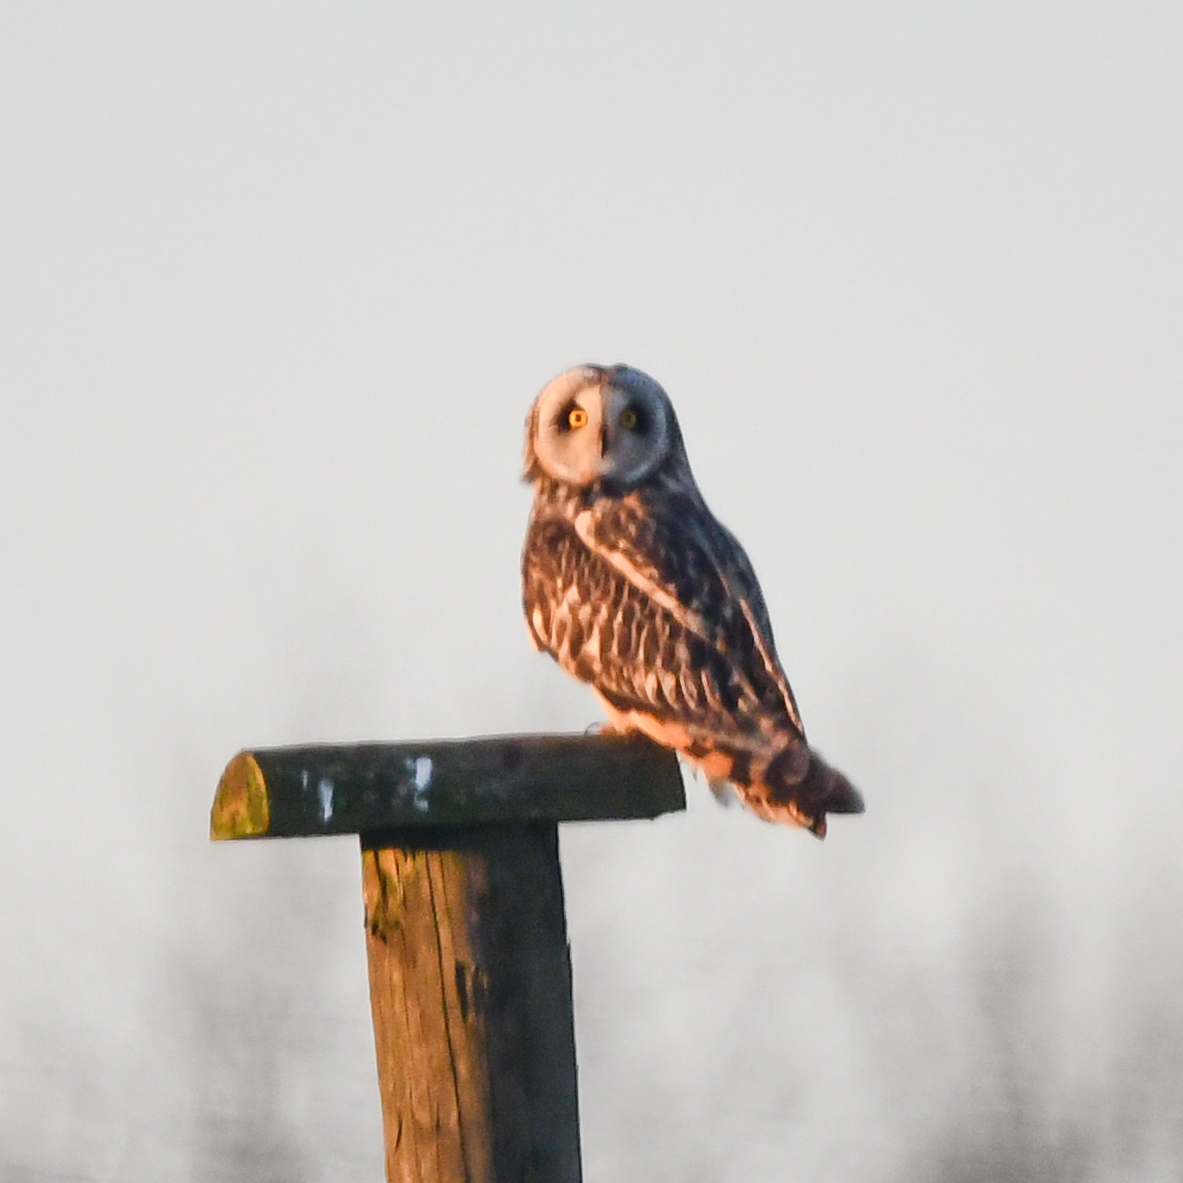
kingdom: Animalia
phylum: Chordata
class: Aves
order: Strigiformes
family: Strigidae
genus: Asio
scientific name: Asio flammeus
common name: Short-eared owl
